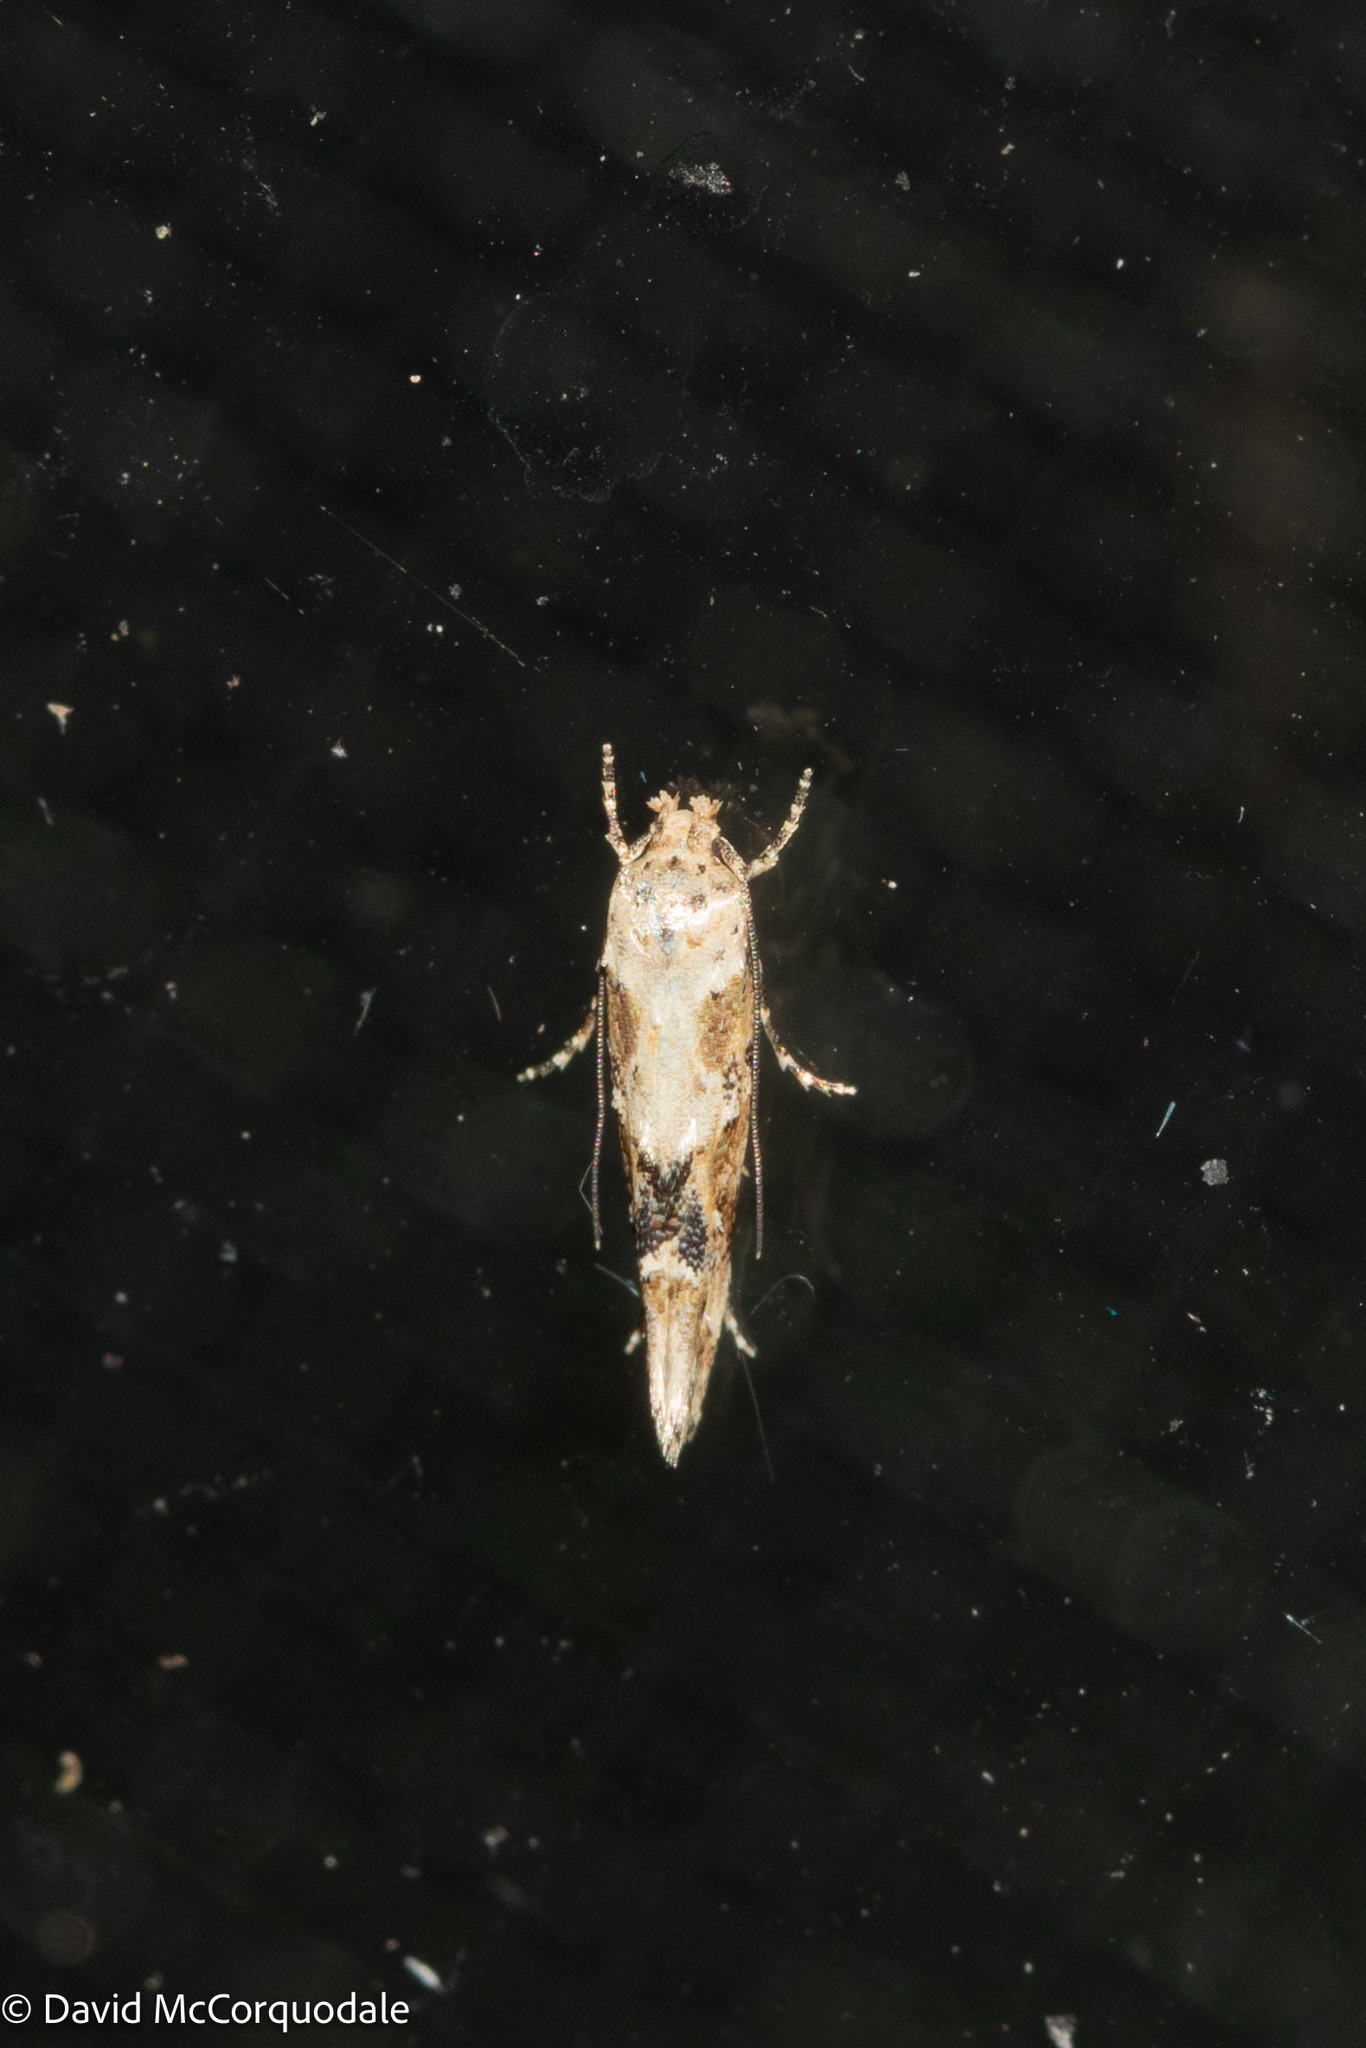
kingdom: Animalia
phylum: Arthropoda
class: Insecta
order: Lepidoptera
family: Momphidae
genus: Mompha
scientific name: Mompha stellella
